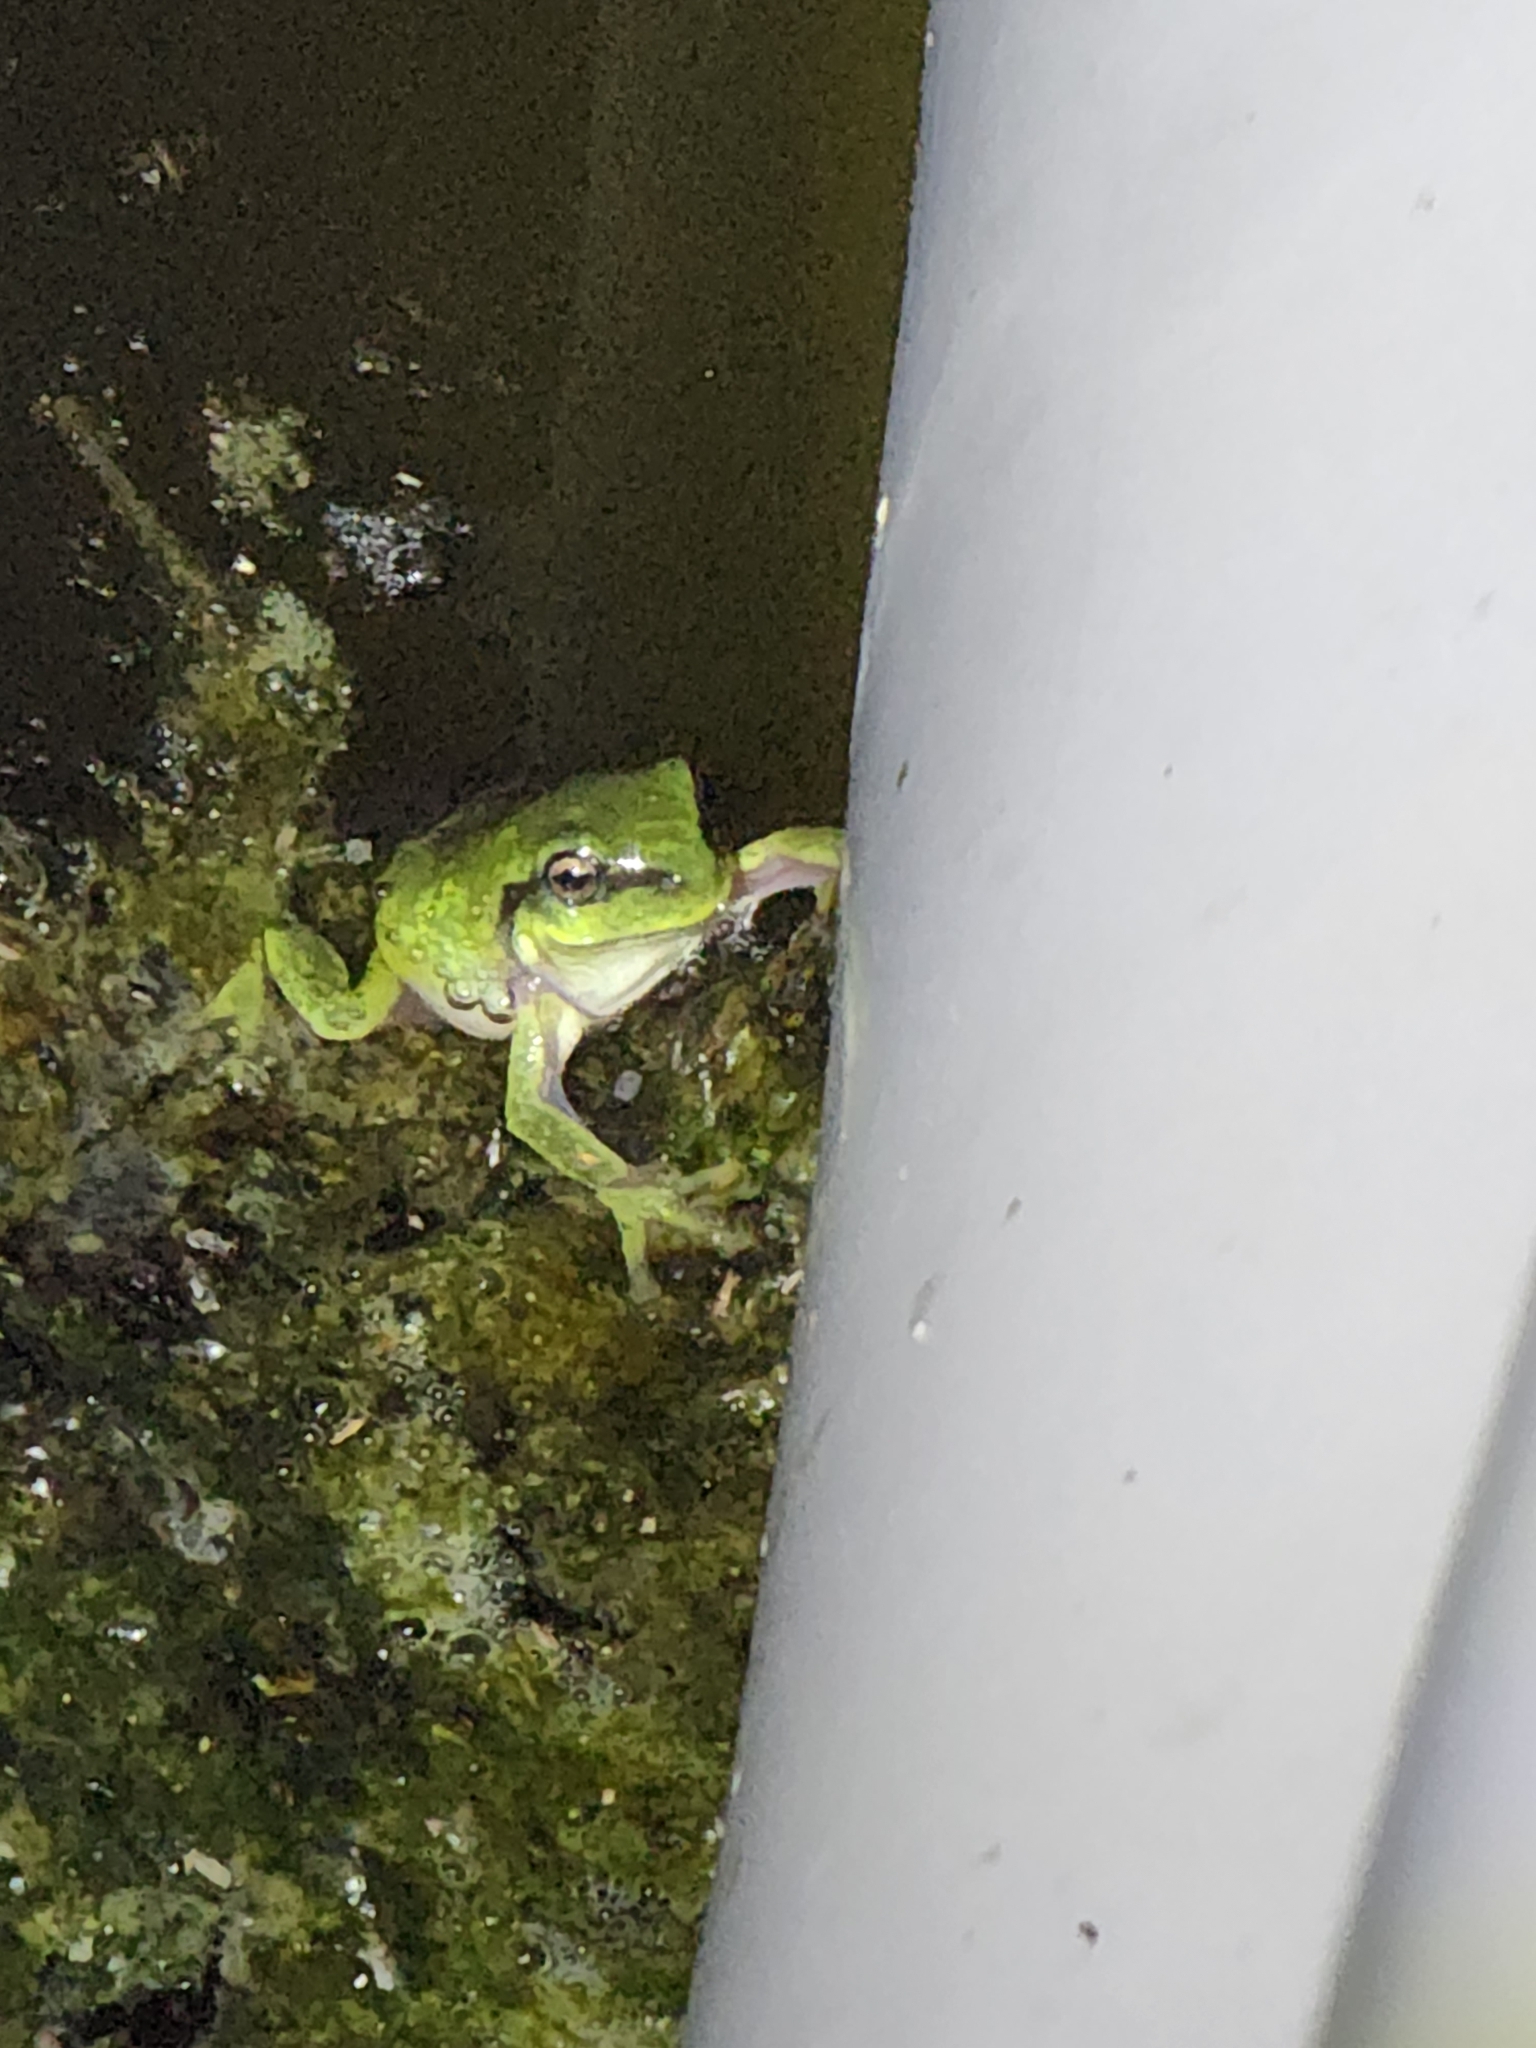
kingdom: Animalia
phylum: Chordata
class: Amphibia
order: Anura
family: Pelodryadidae
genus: Ranoidea
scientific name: Ranoidea caerulea
